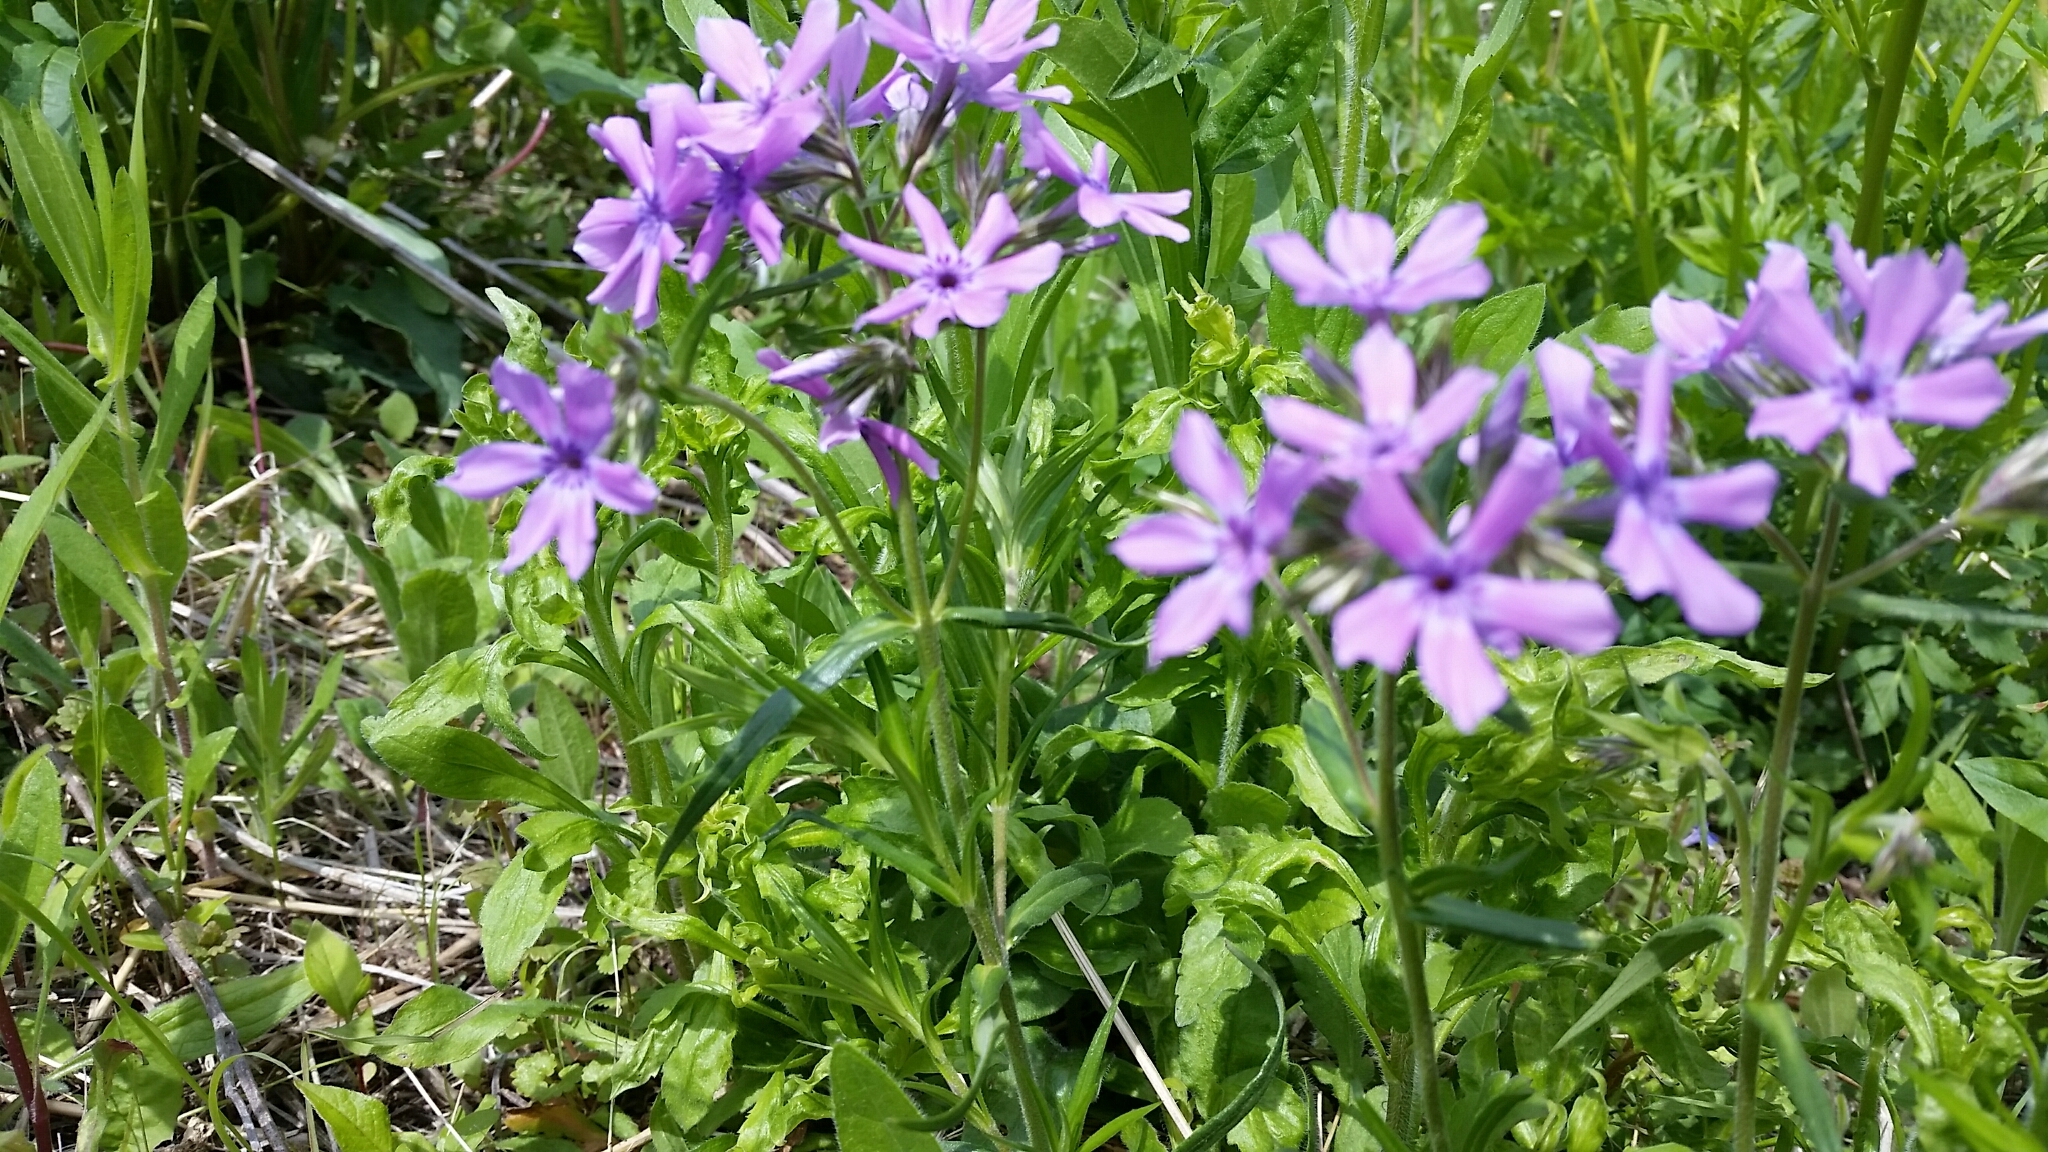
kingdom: Plantae
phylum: Tracheophyta
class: Magnoliopsida
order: Ericales
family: Polemoniaceae
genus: Phlox
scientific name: Phlox pilosa
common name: Prairie phlox
